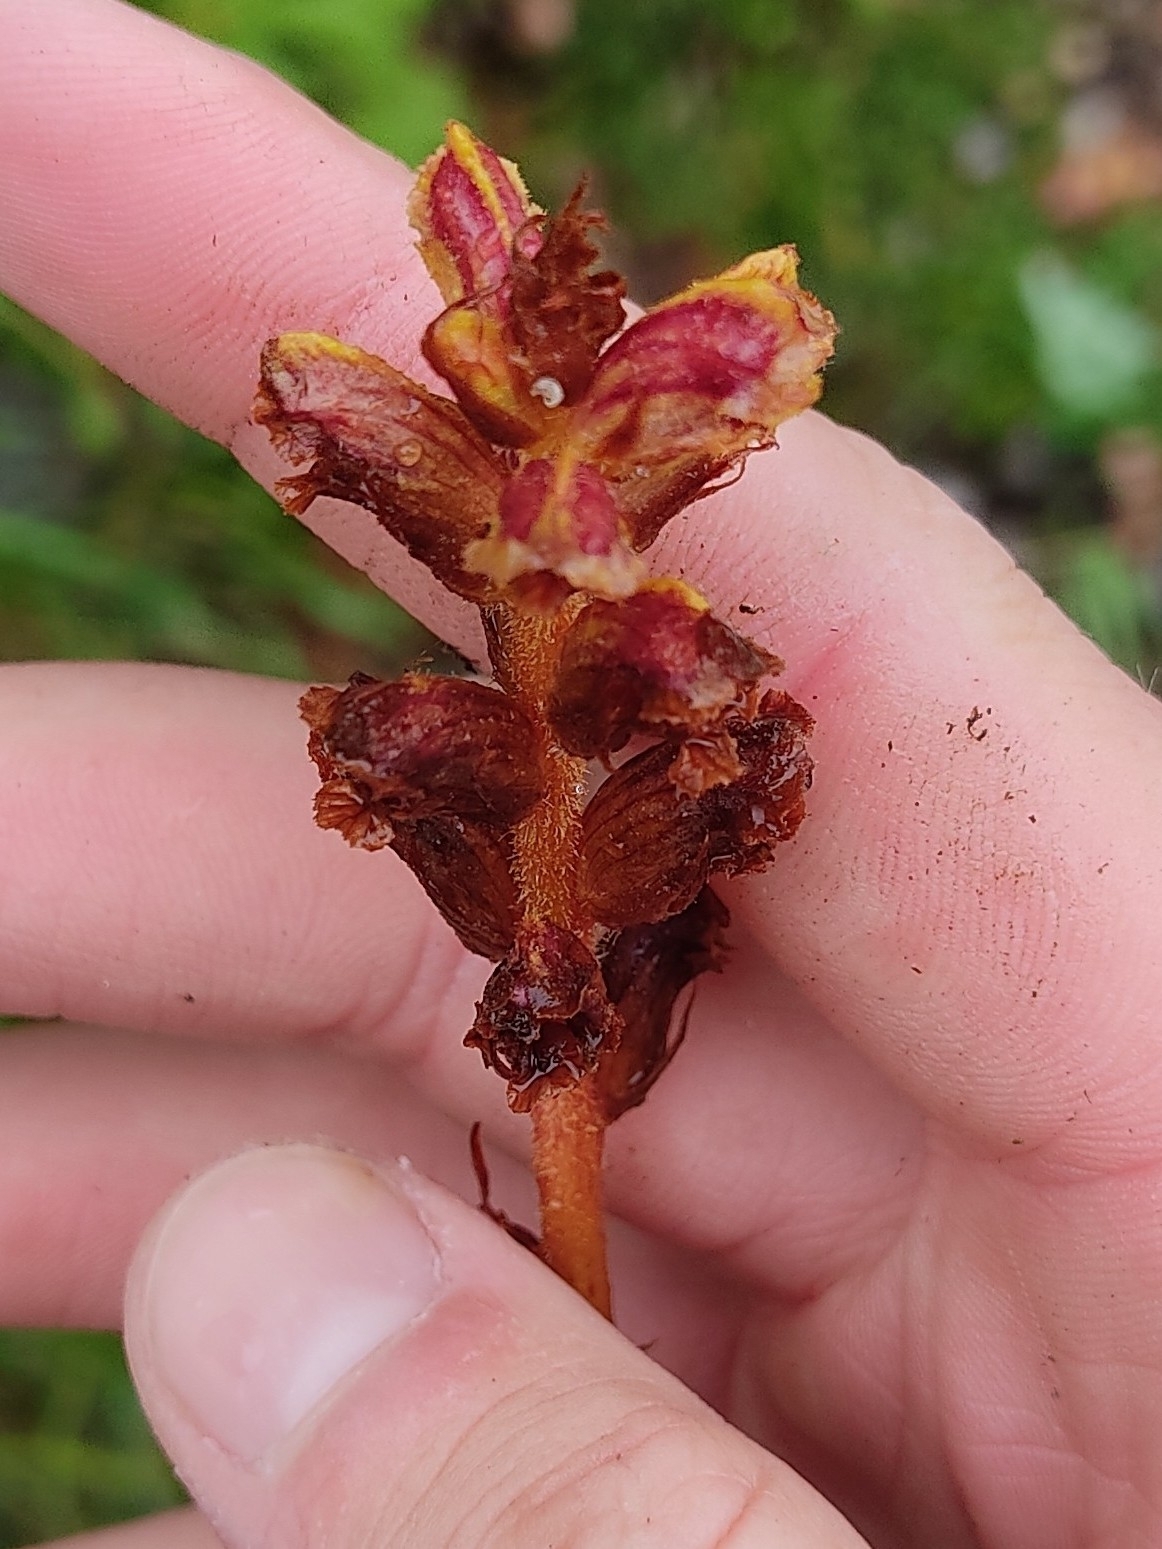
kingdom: Plantae
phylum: Tracheophyta
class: Magnoliopsida
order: Lamiales
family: Orobanchaceae
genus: Orobanche
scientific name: Orobanche gracilis
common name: Slender broomrape
